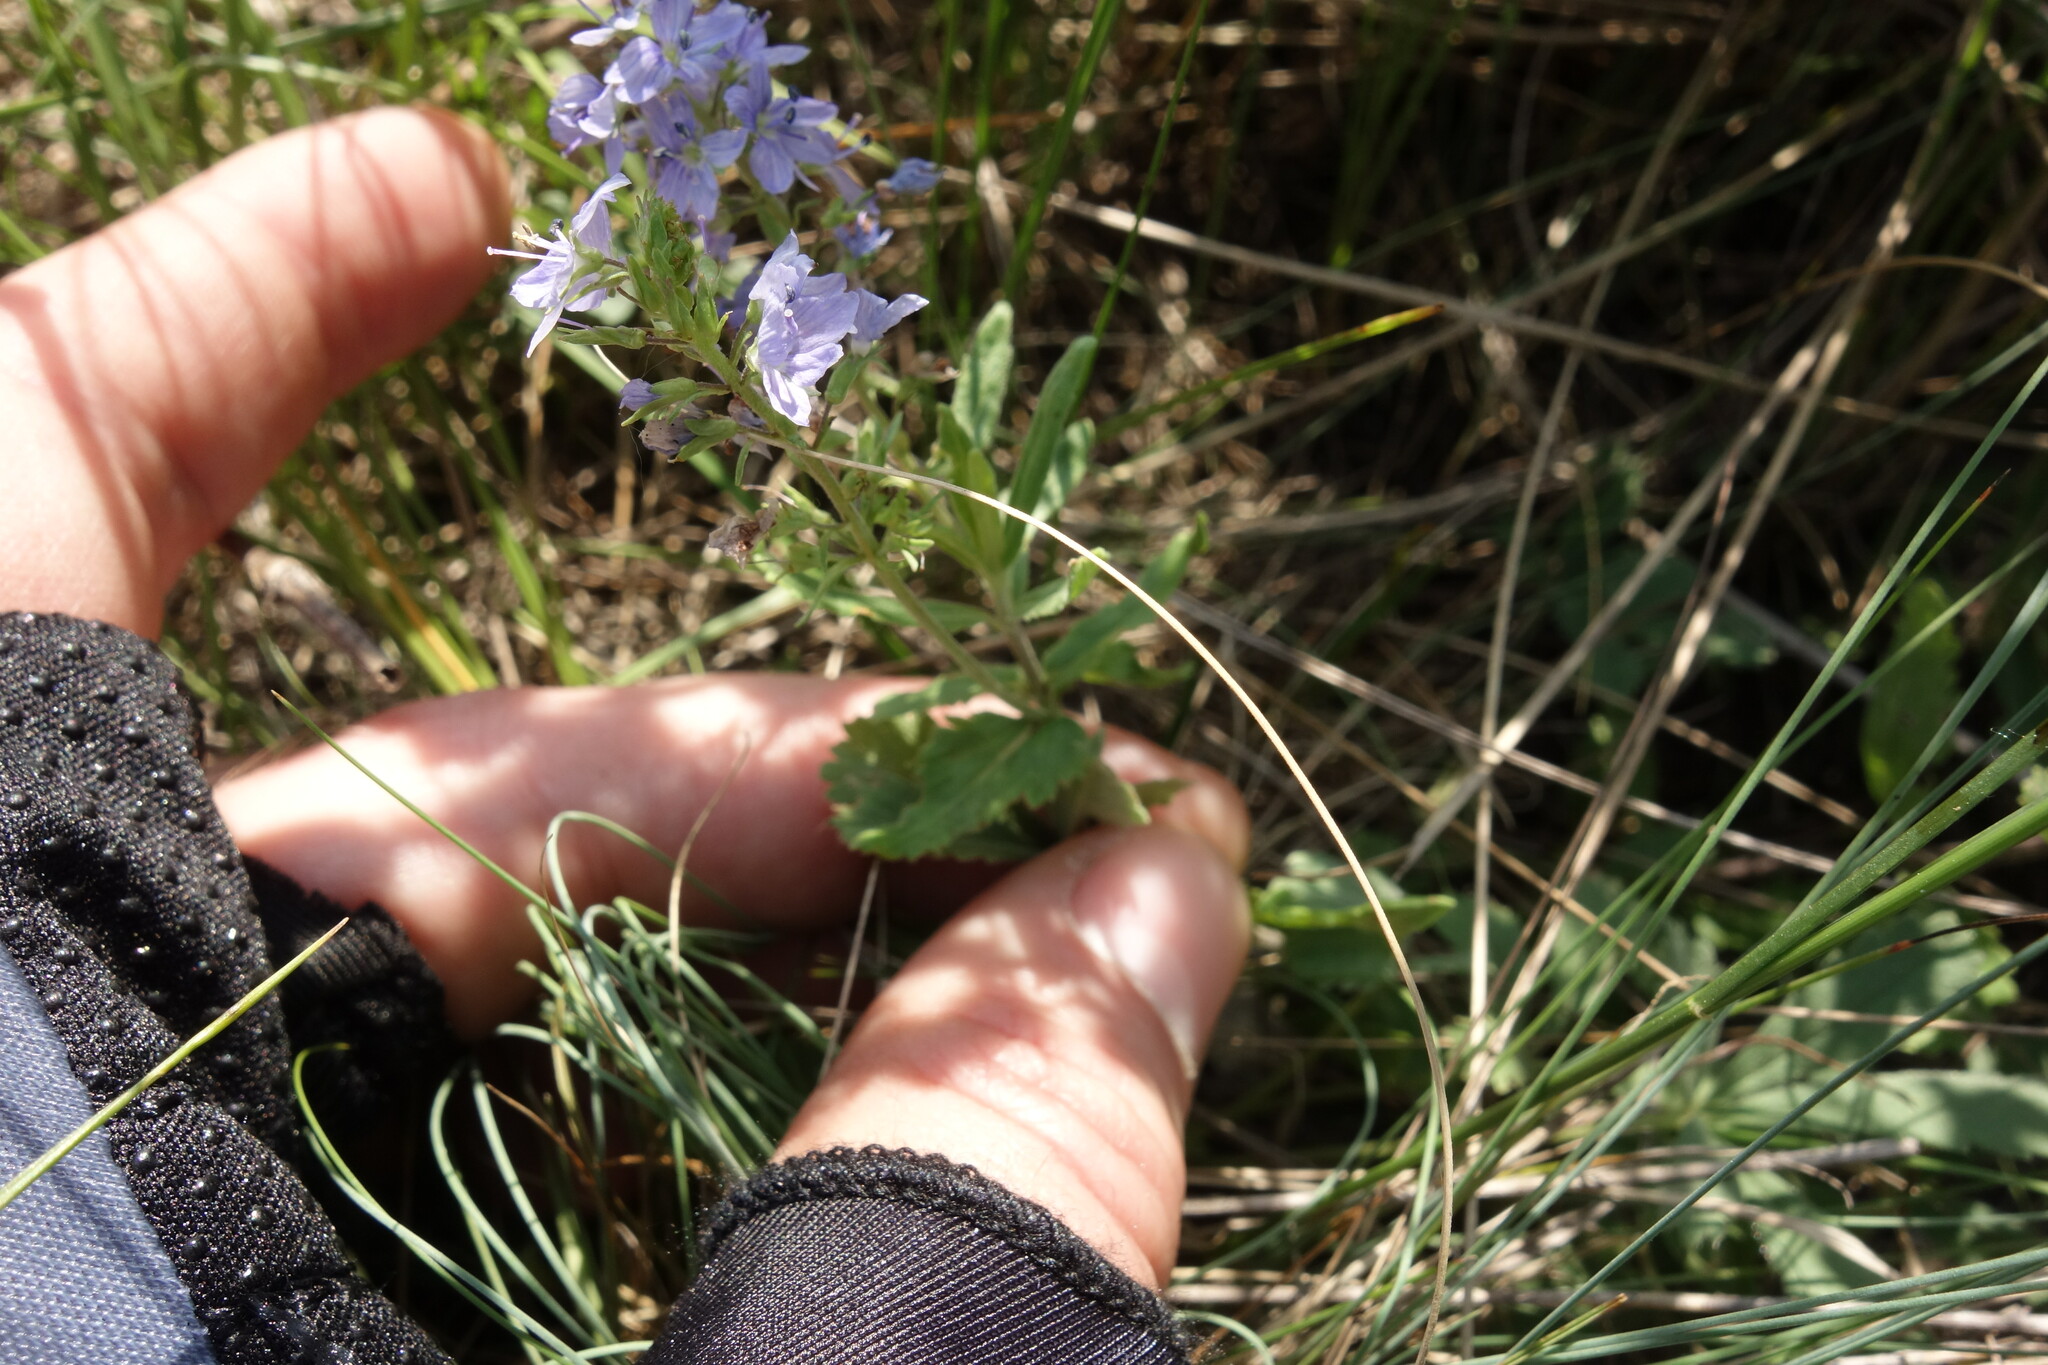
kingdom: Plantae
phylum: Tracheophyta
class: Magnoliopsida
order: Lamiales
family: Plantaginaceae
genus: Veronica
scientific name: Veronica prostrata
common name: Prostrate speedwell
